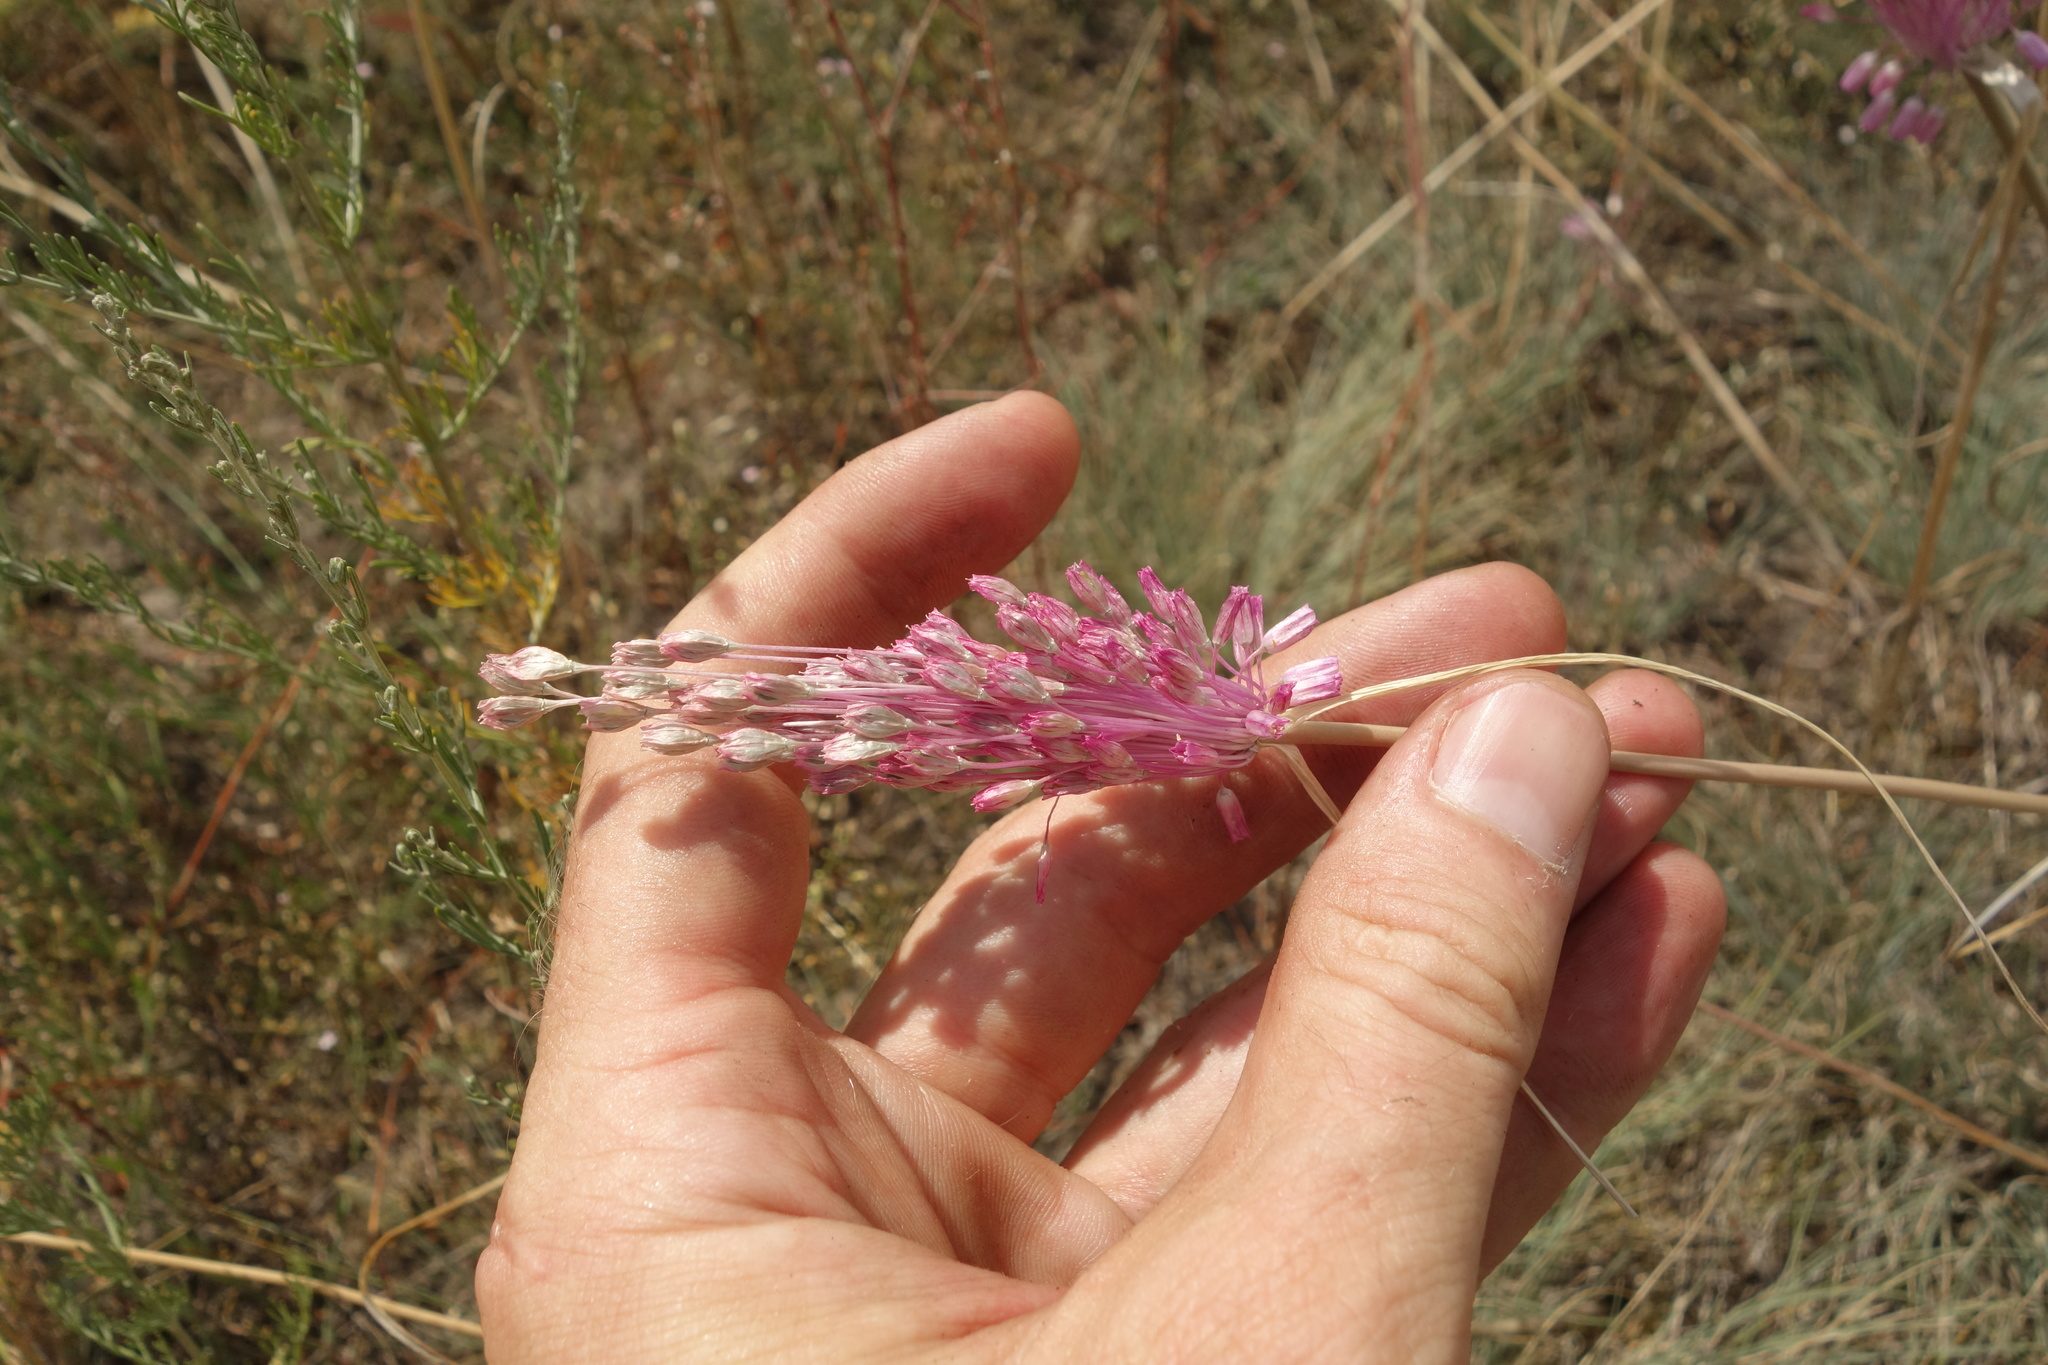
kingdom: Plantae
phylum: Tracheophyta
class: Liliopsida
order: Asparagales
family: Amaryllidaceae
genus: Allium
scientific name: Allium praescissum
